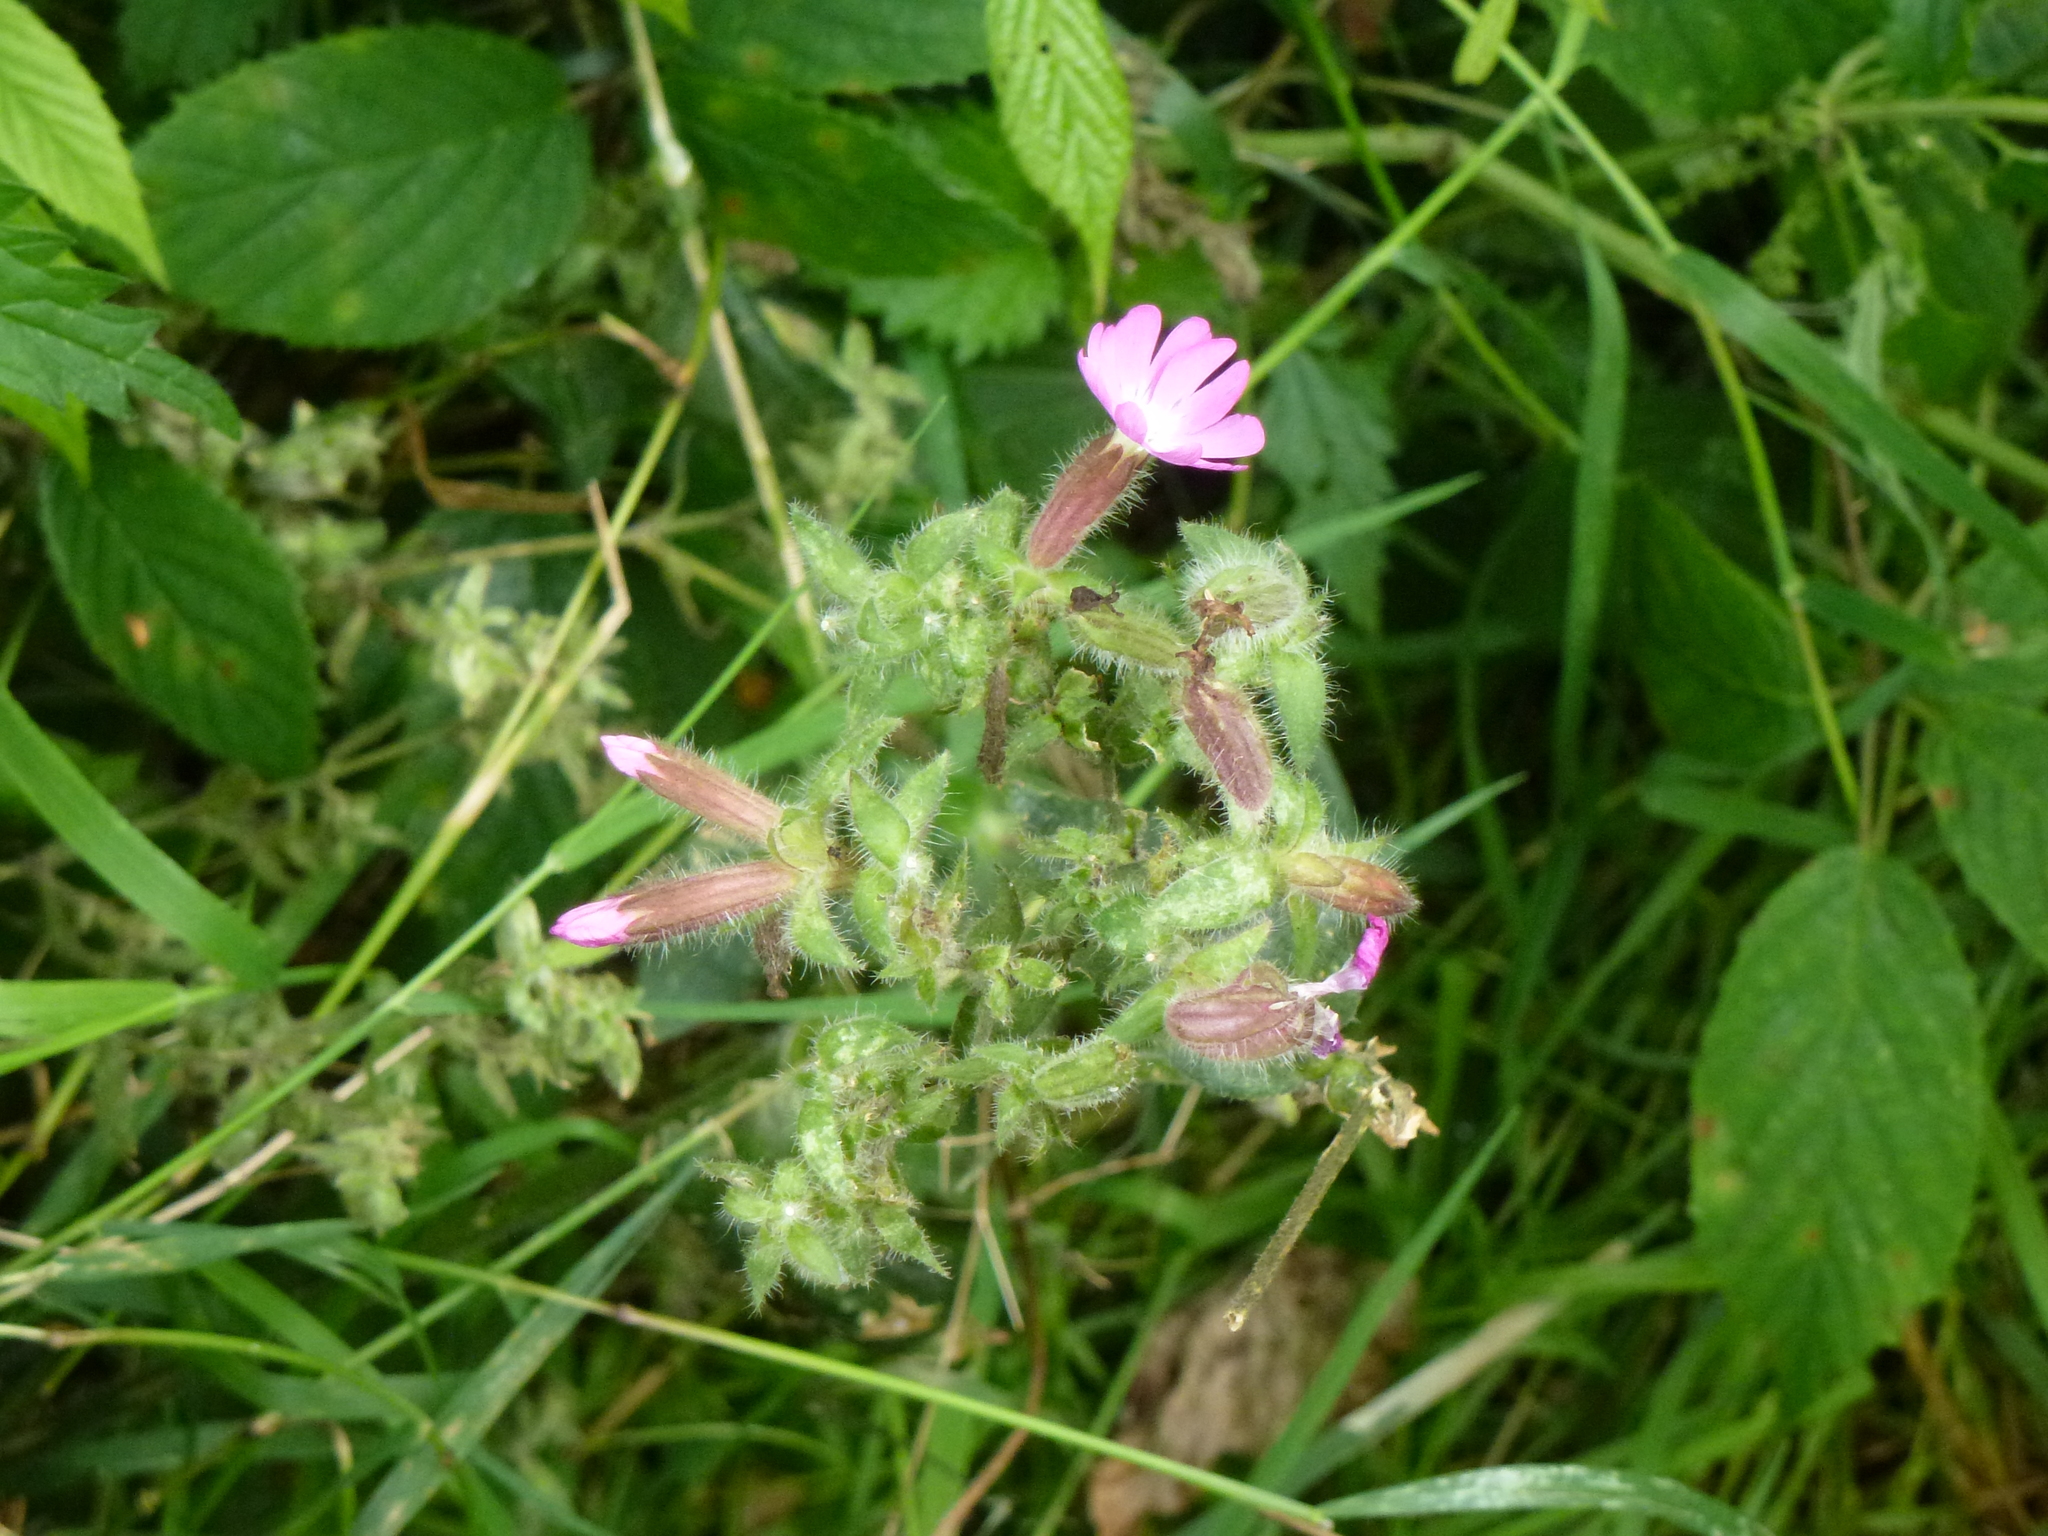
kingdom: Plantae
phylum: Tracheophyta
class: Magnoliopsida
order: Caryophyllales
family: Caryophyllaceae
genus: Silene
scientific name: Silene dioica
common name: Red campion
